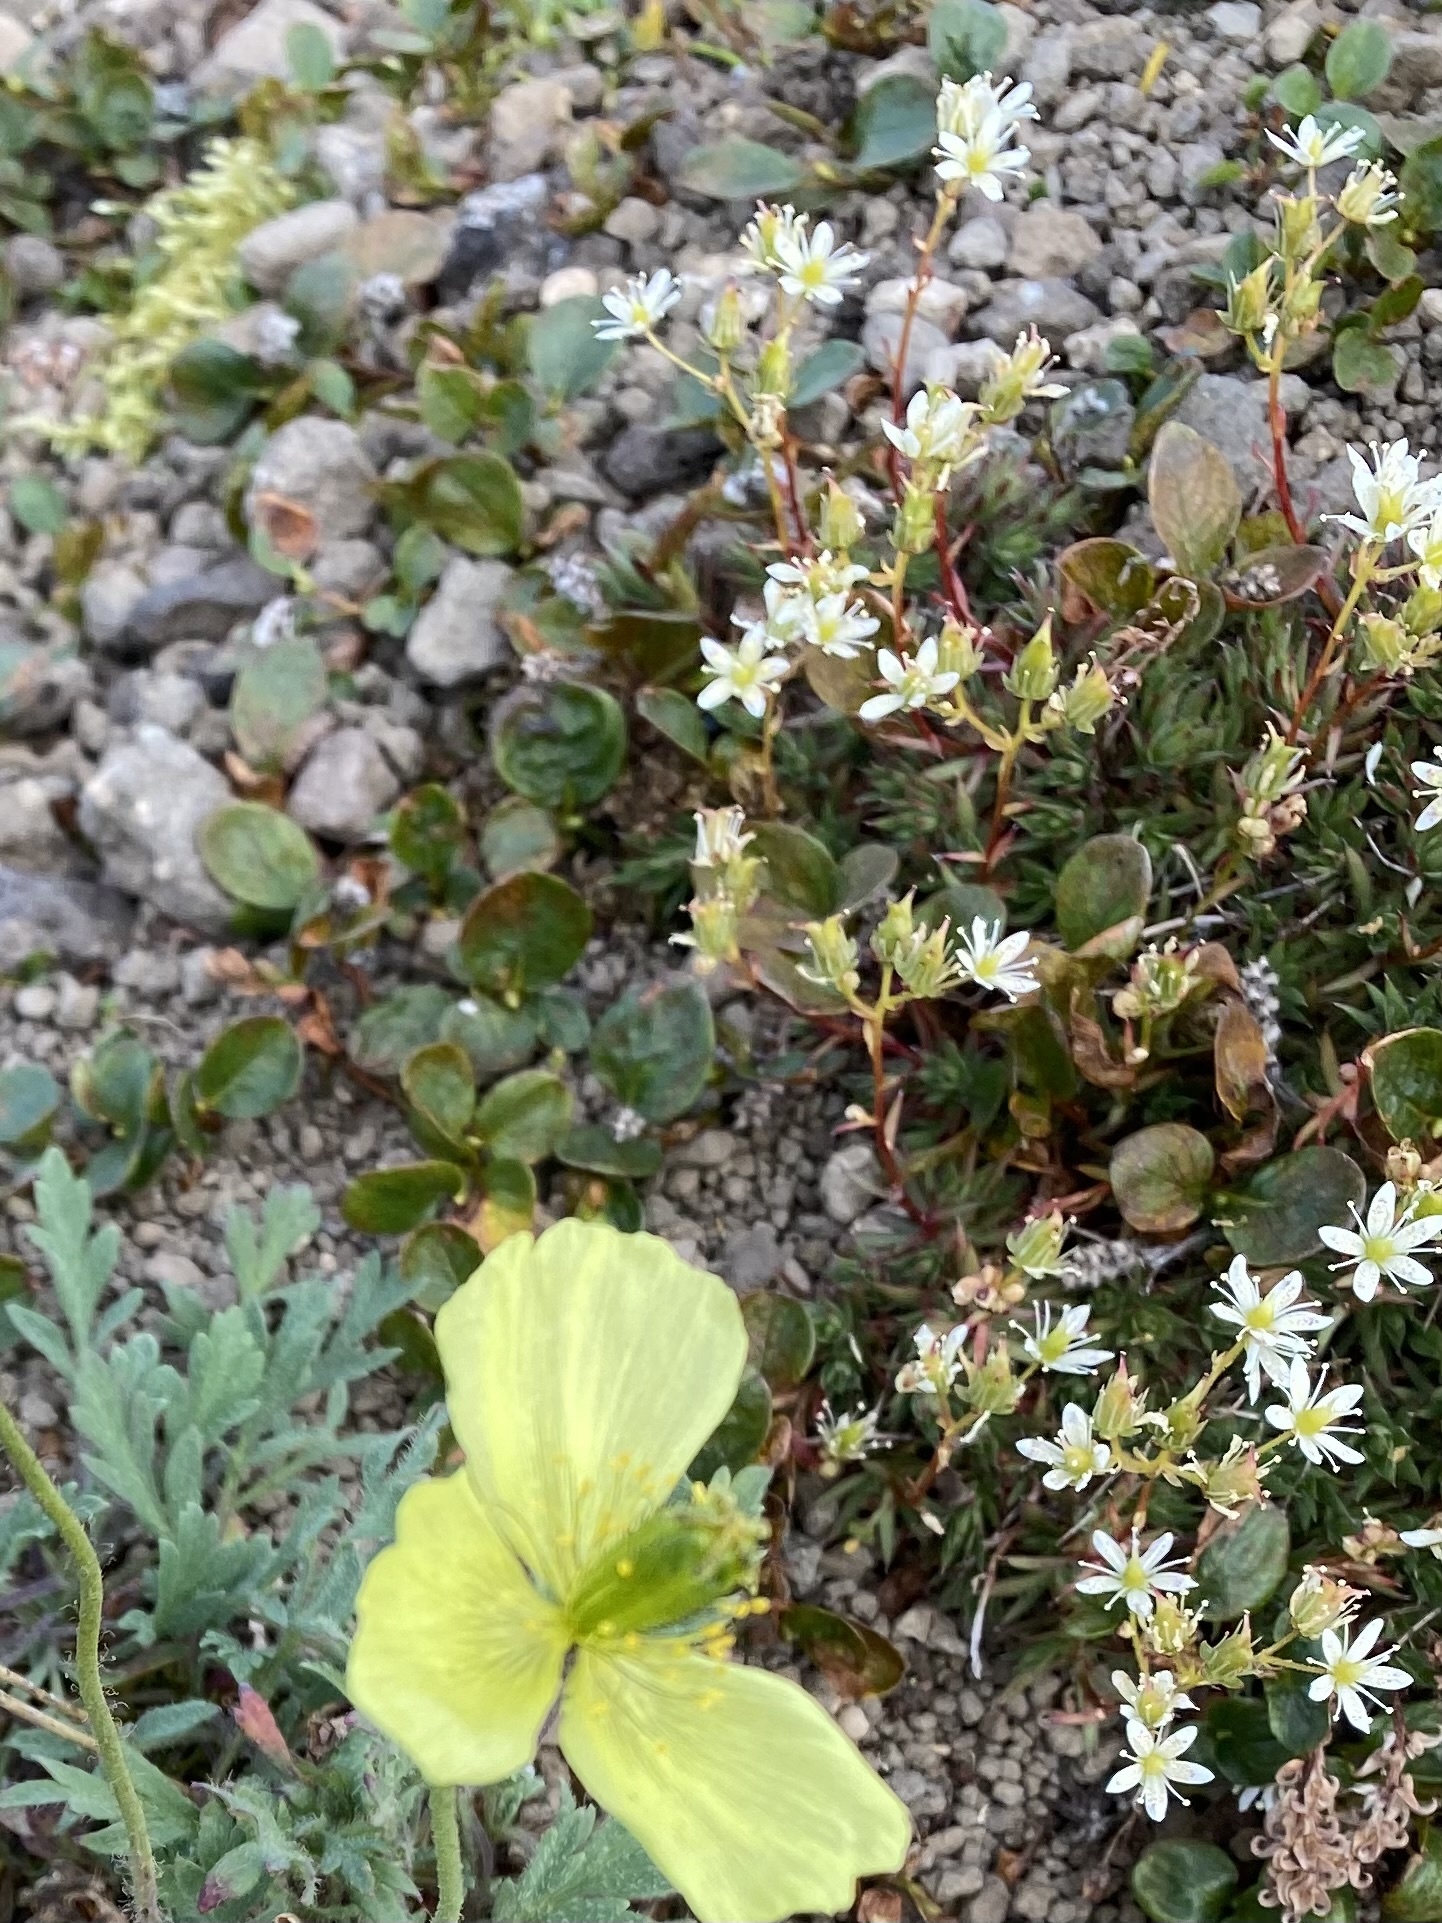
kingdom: Plantae
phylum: Tracheophyta
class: Magnoliopsida
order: Saxifragales
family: Saxifragaceae
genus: Saxifraga
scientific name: Saxifraga
